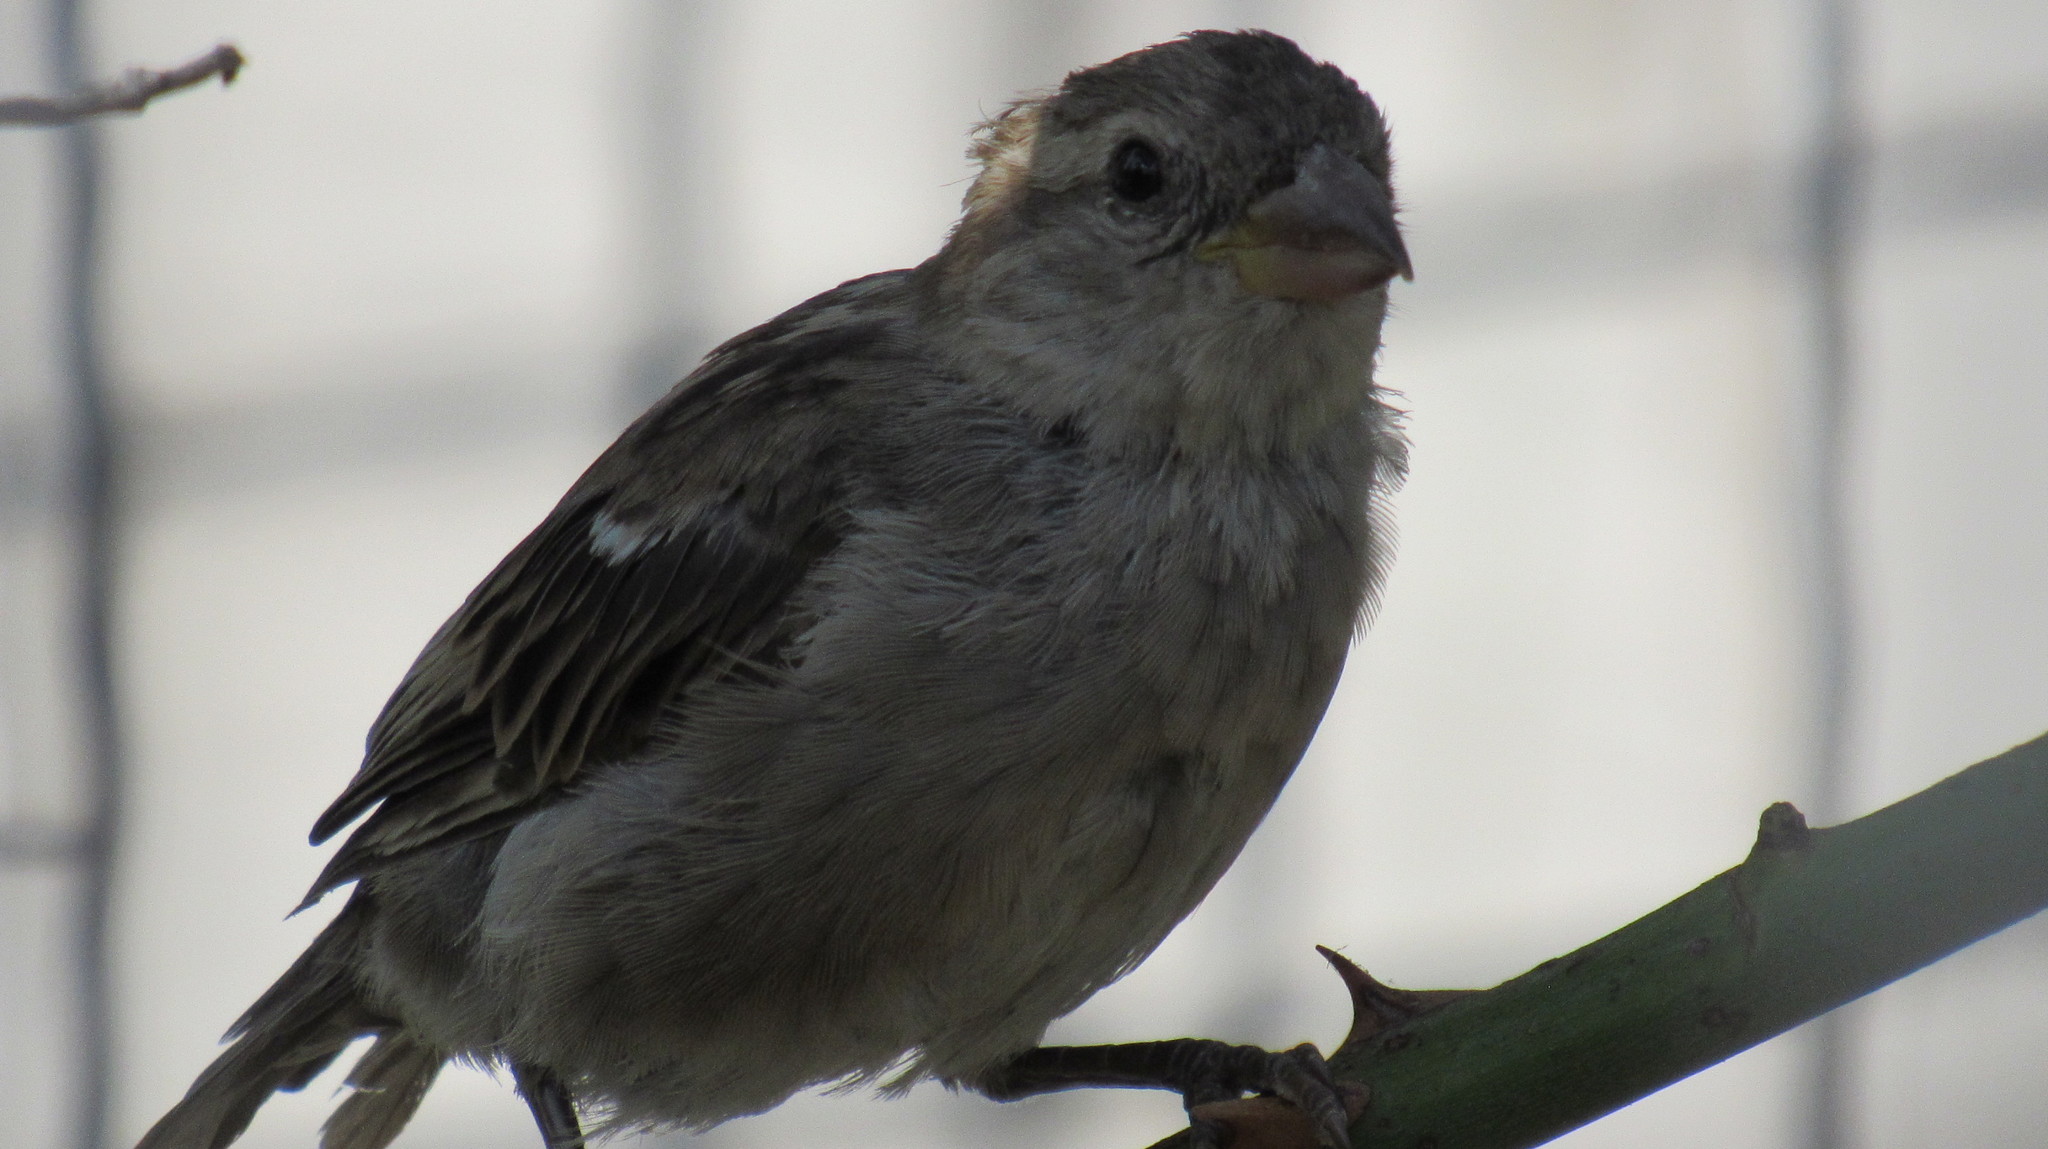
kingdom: Animalia
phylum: Chordata
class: Aves
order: Passeriformes
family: Passeridae
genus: Passer
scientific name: Passer domesticus
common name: House sparrow
